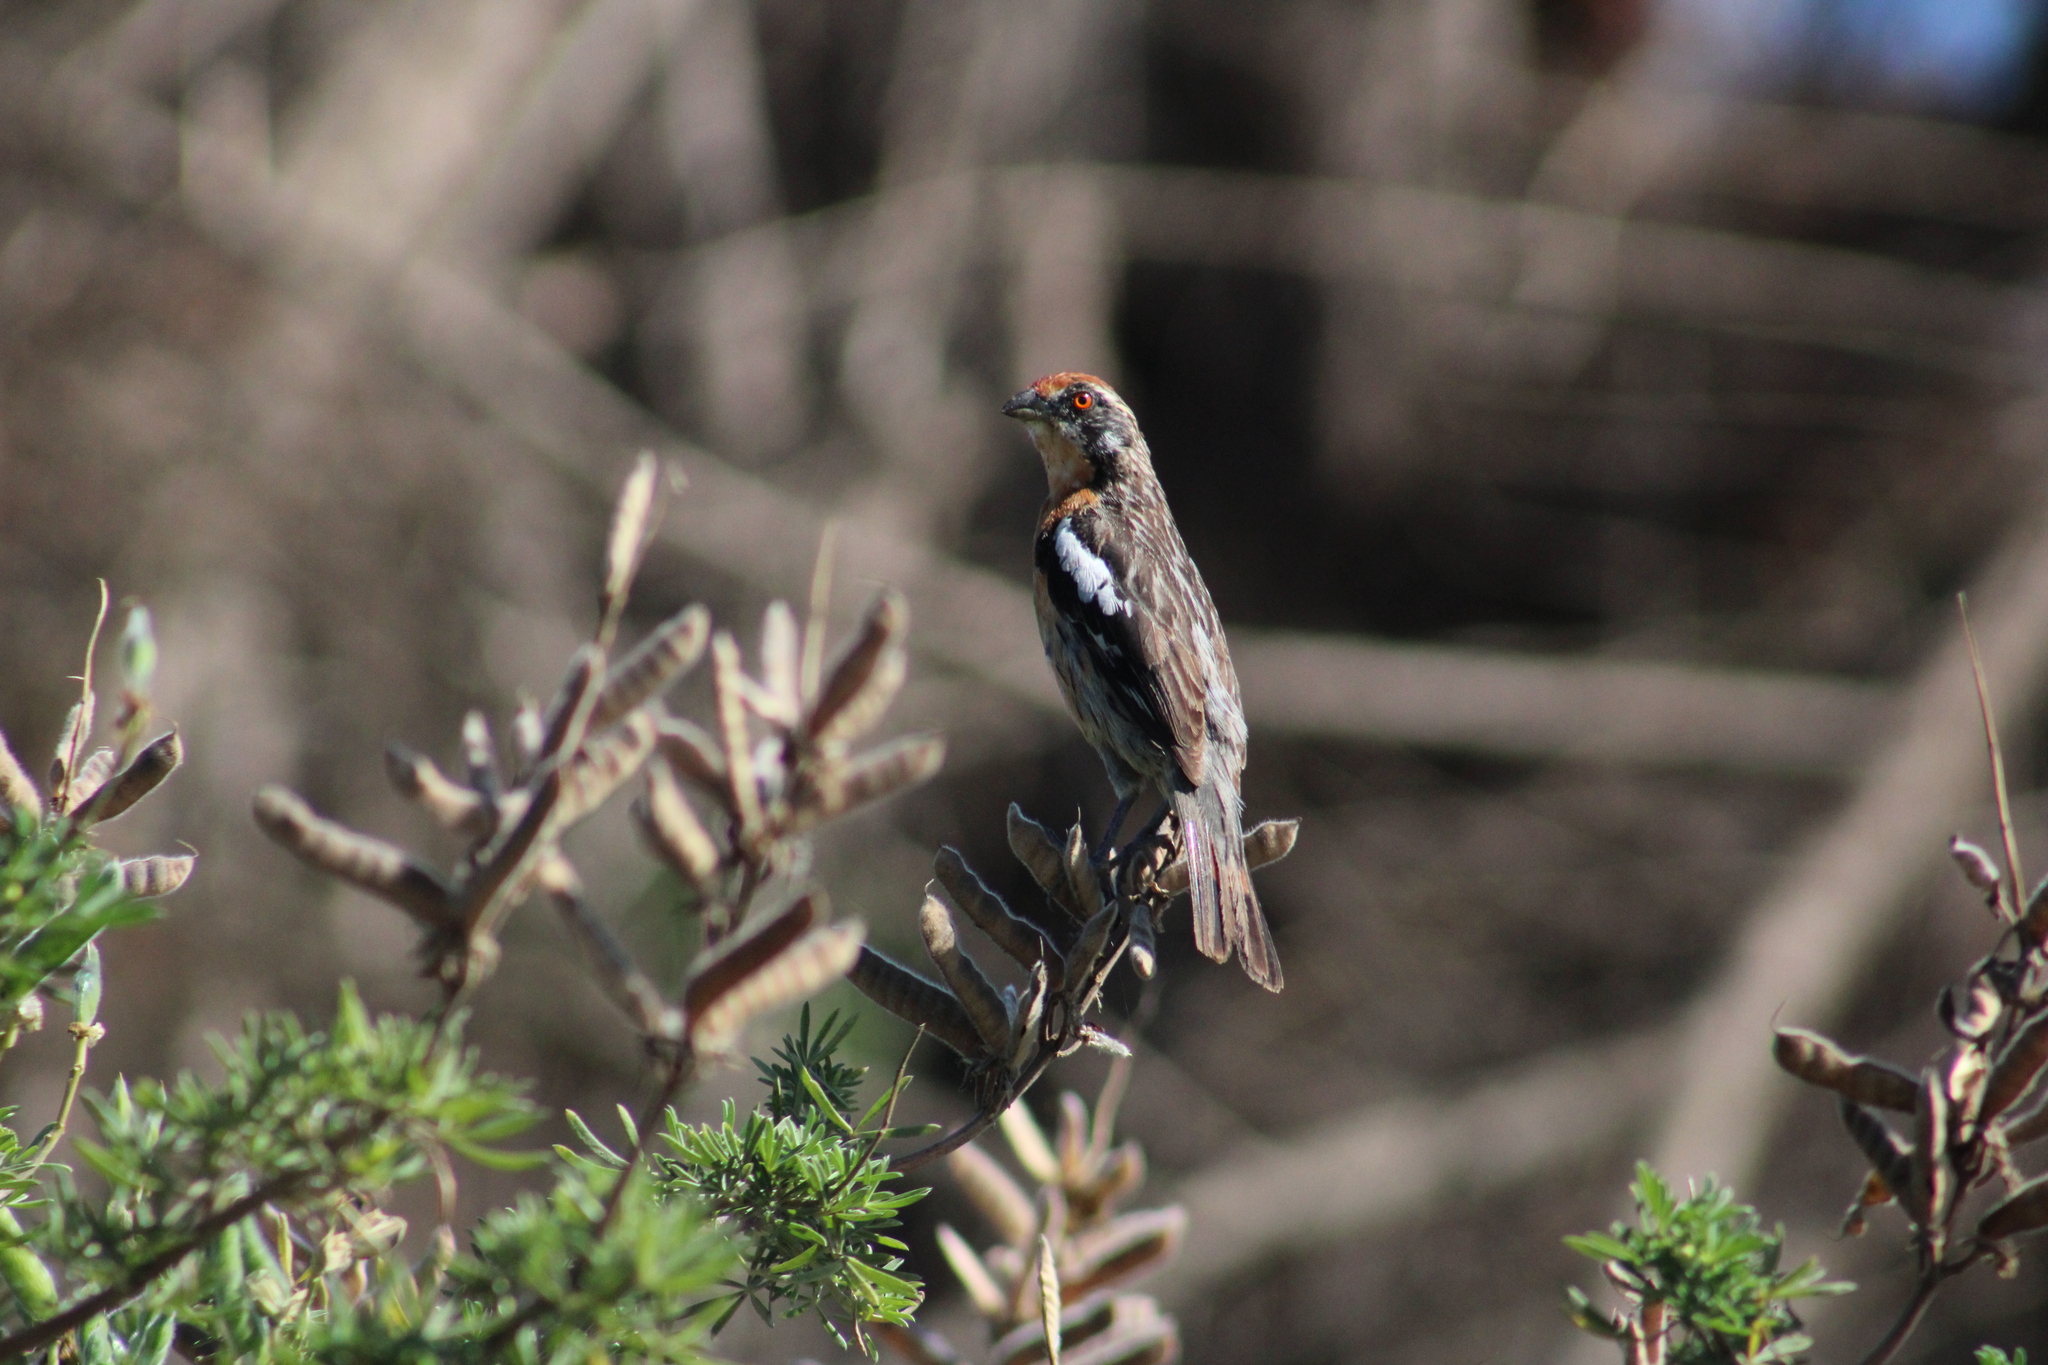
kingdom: Animalia
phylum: Chordata
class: Aves
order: Passeriformes
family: Cotingidae
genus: Phytotoma
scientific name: Phytotoma rara
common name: Rufous-tailed plantcutter
